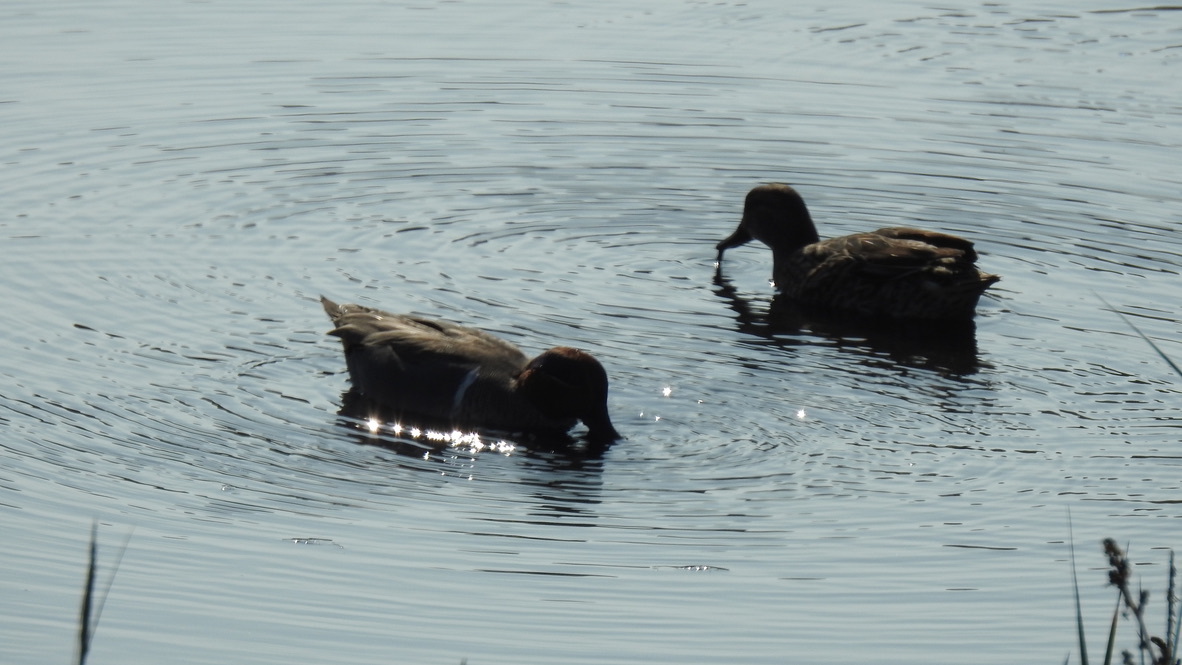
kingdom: Animalia
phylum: Chordata
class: Aves
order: Anseriformes
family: Anatidae
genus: Anas
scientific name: Anas crecca
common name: Eurasian teal
